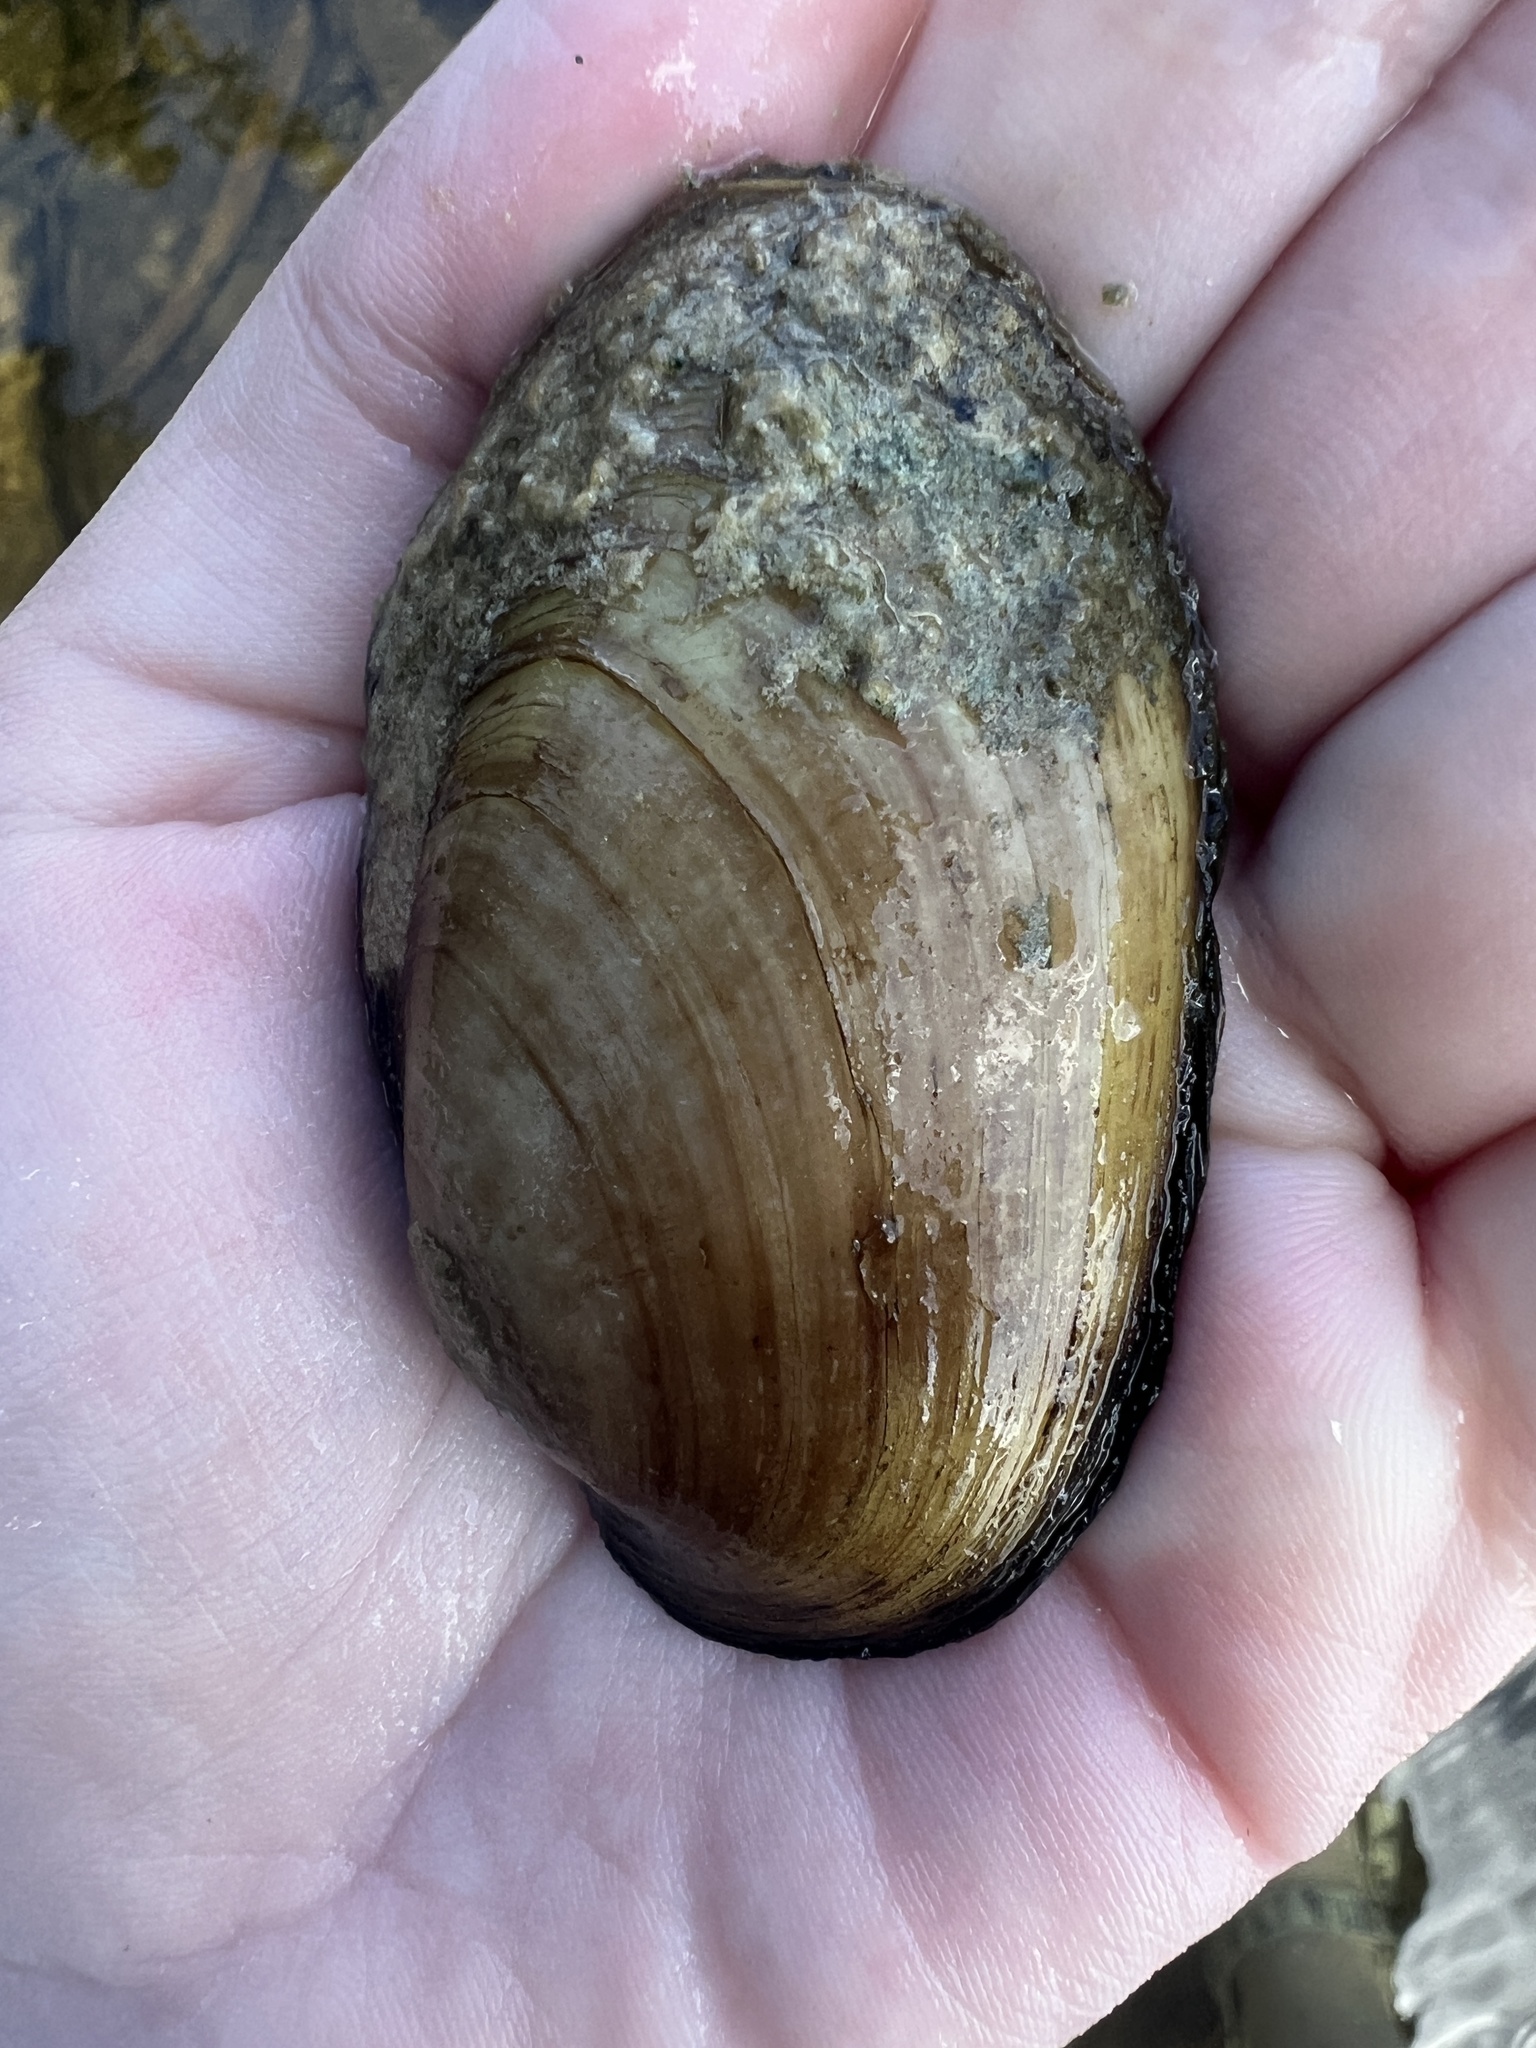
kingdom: Animalia
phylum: Mollusca
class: Bivalvia
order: Unionida
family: Unionidae
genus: Lampsilis
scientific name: Lampsilis siliquoidea
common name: Fatmucket
